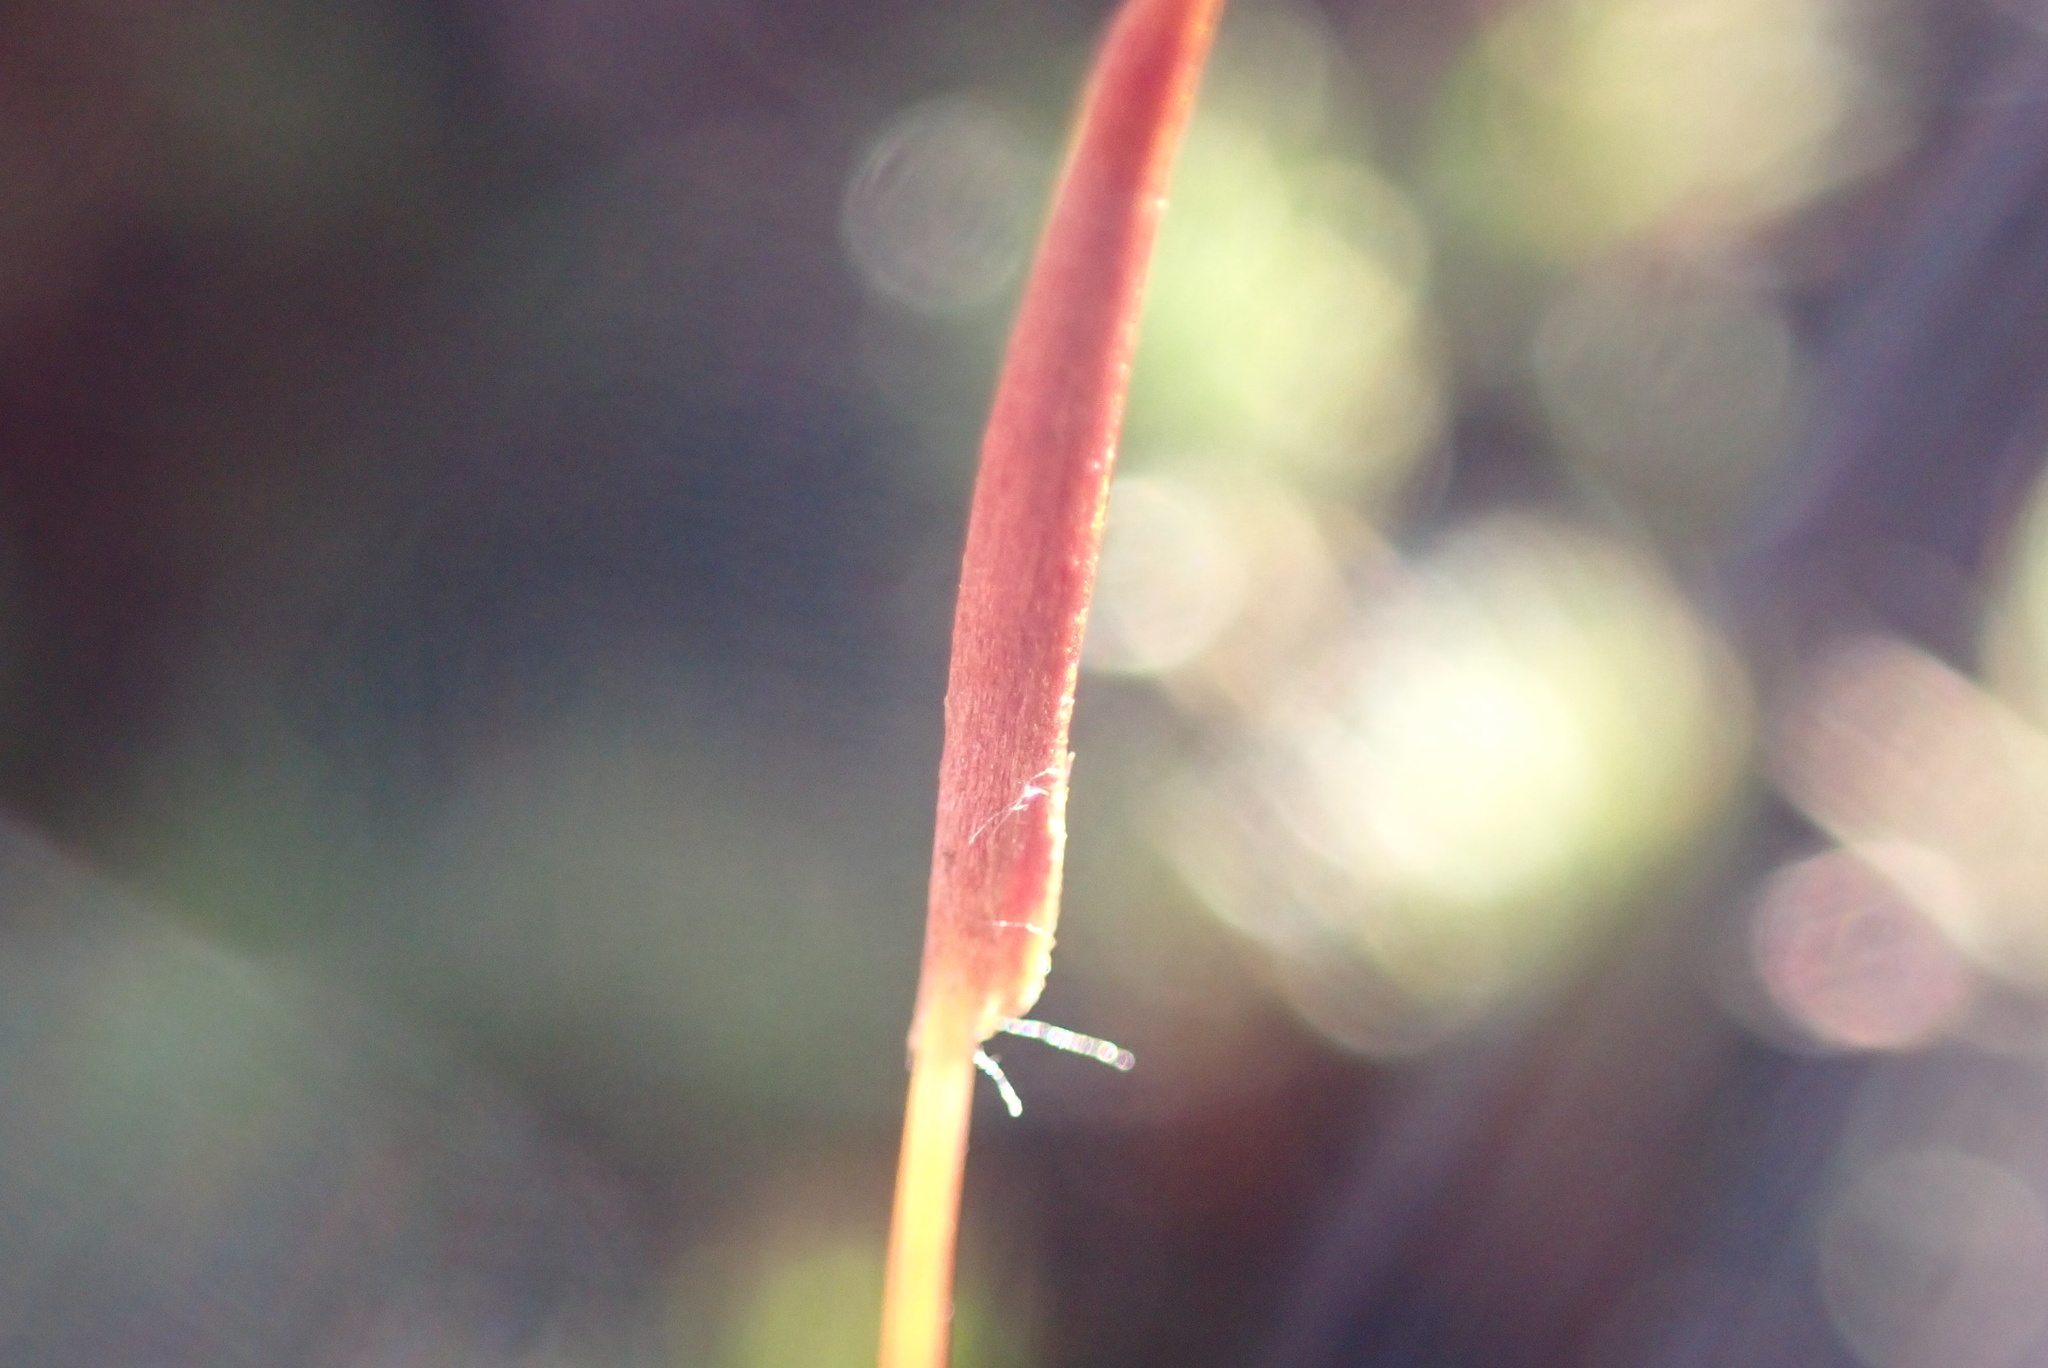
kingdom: Plantae
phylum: Bryophyta
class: Polytrichopsida
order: Polytrichales
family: Polytrichaceae
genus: Polytrichum
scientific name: Polytrichum piliferum
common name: Bristly haircap
